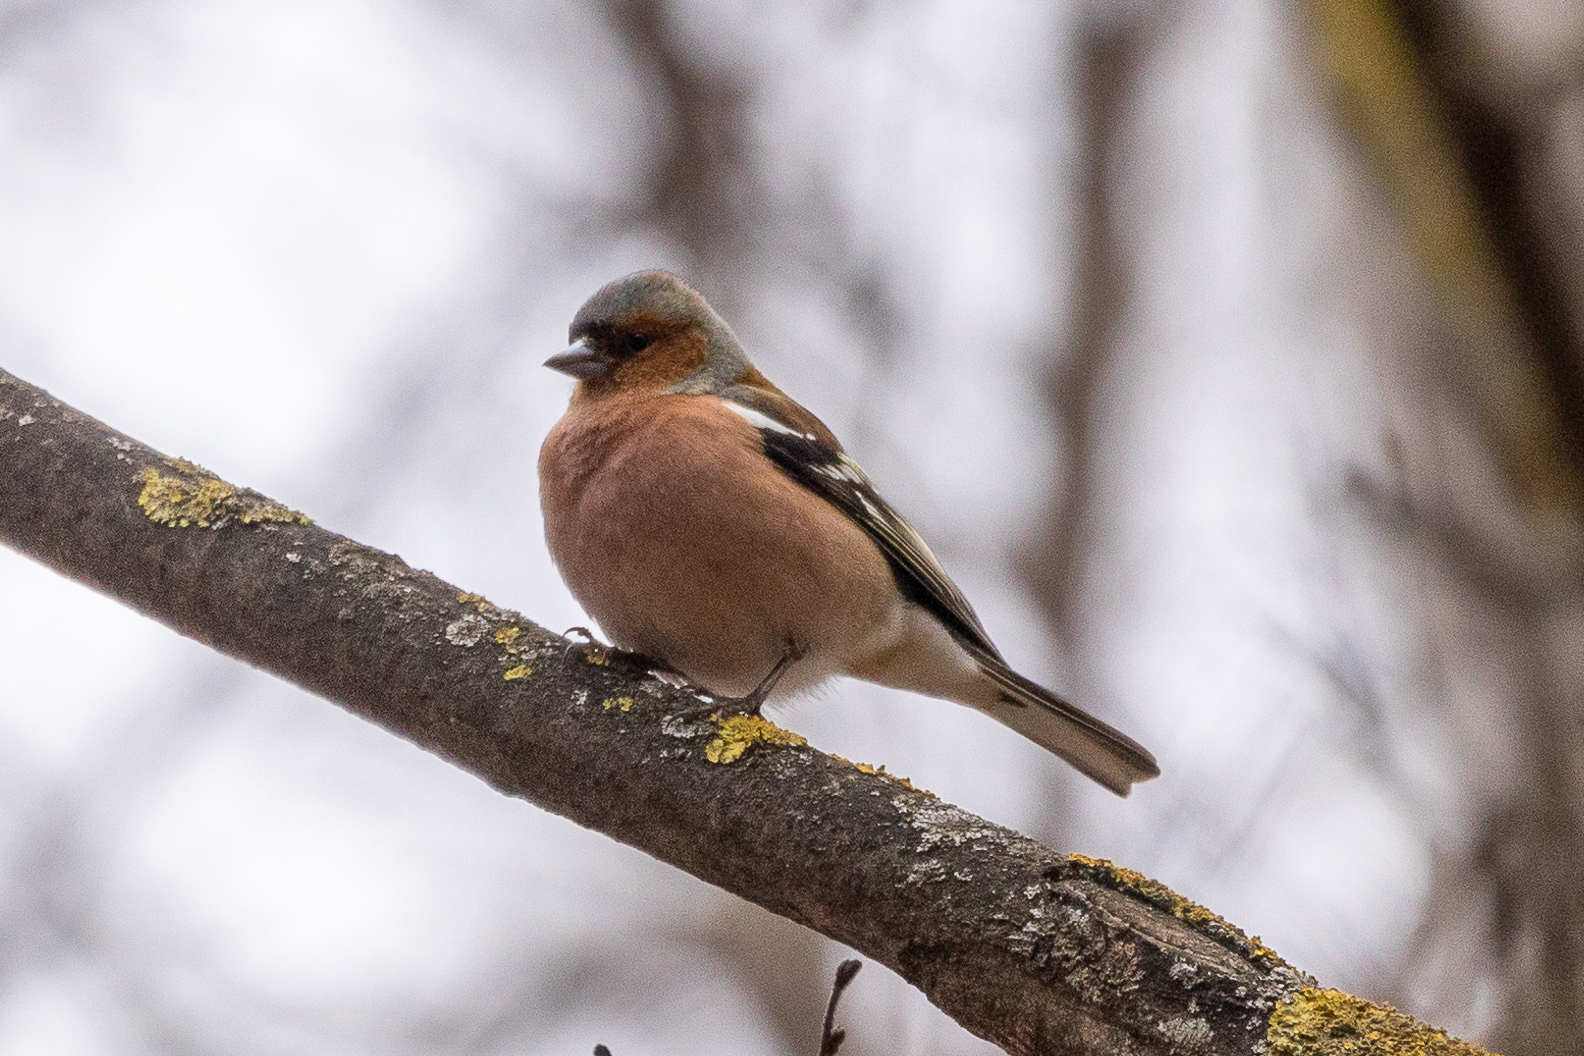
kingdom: Animalia
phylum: Chordata
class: Aves
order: Passeriformes
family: Fringillidae
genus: Fringilla
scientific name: Fringilla coelebs
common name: Common chaffinch
